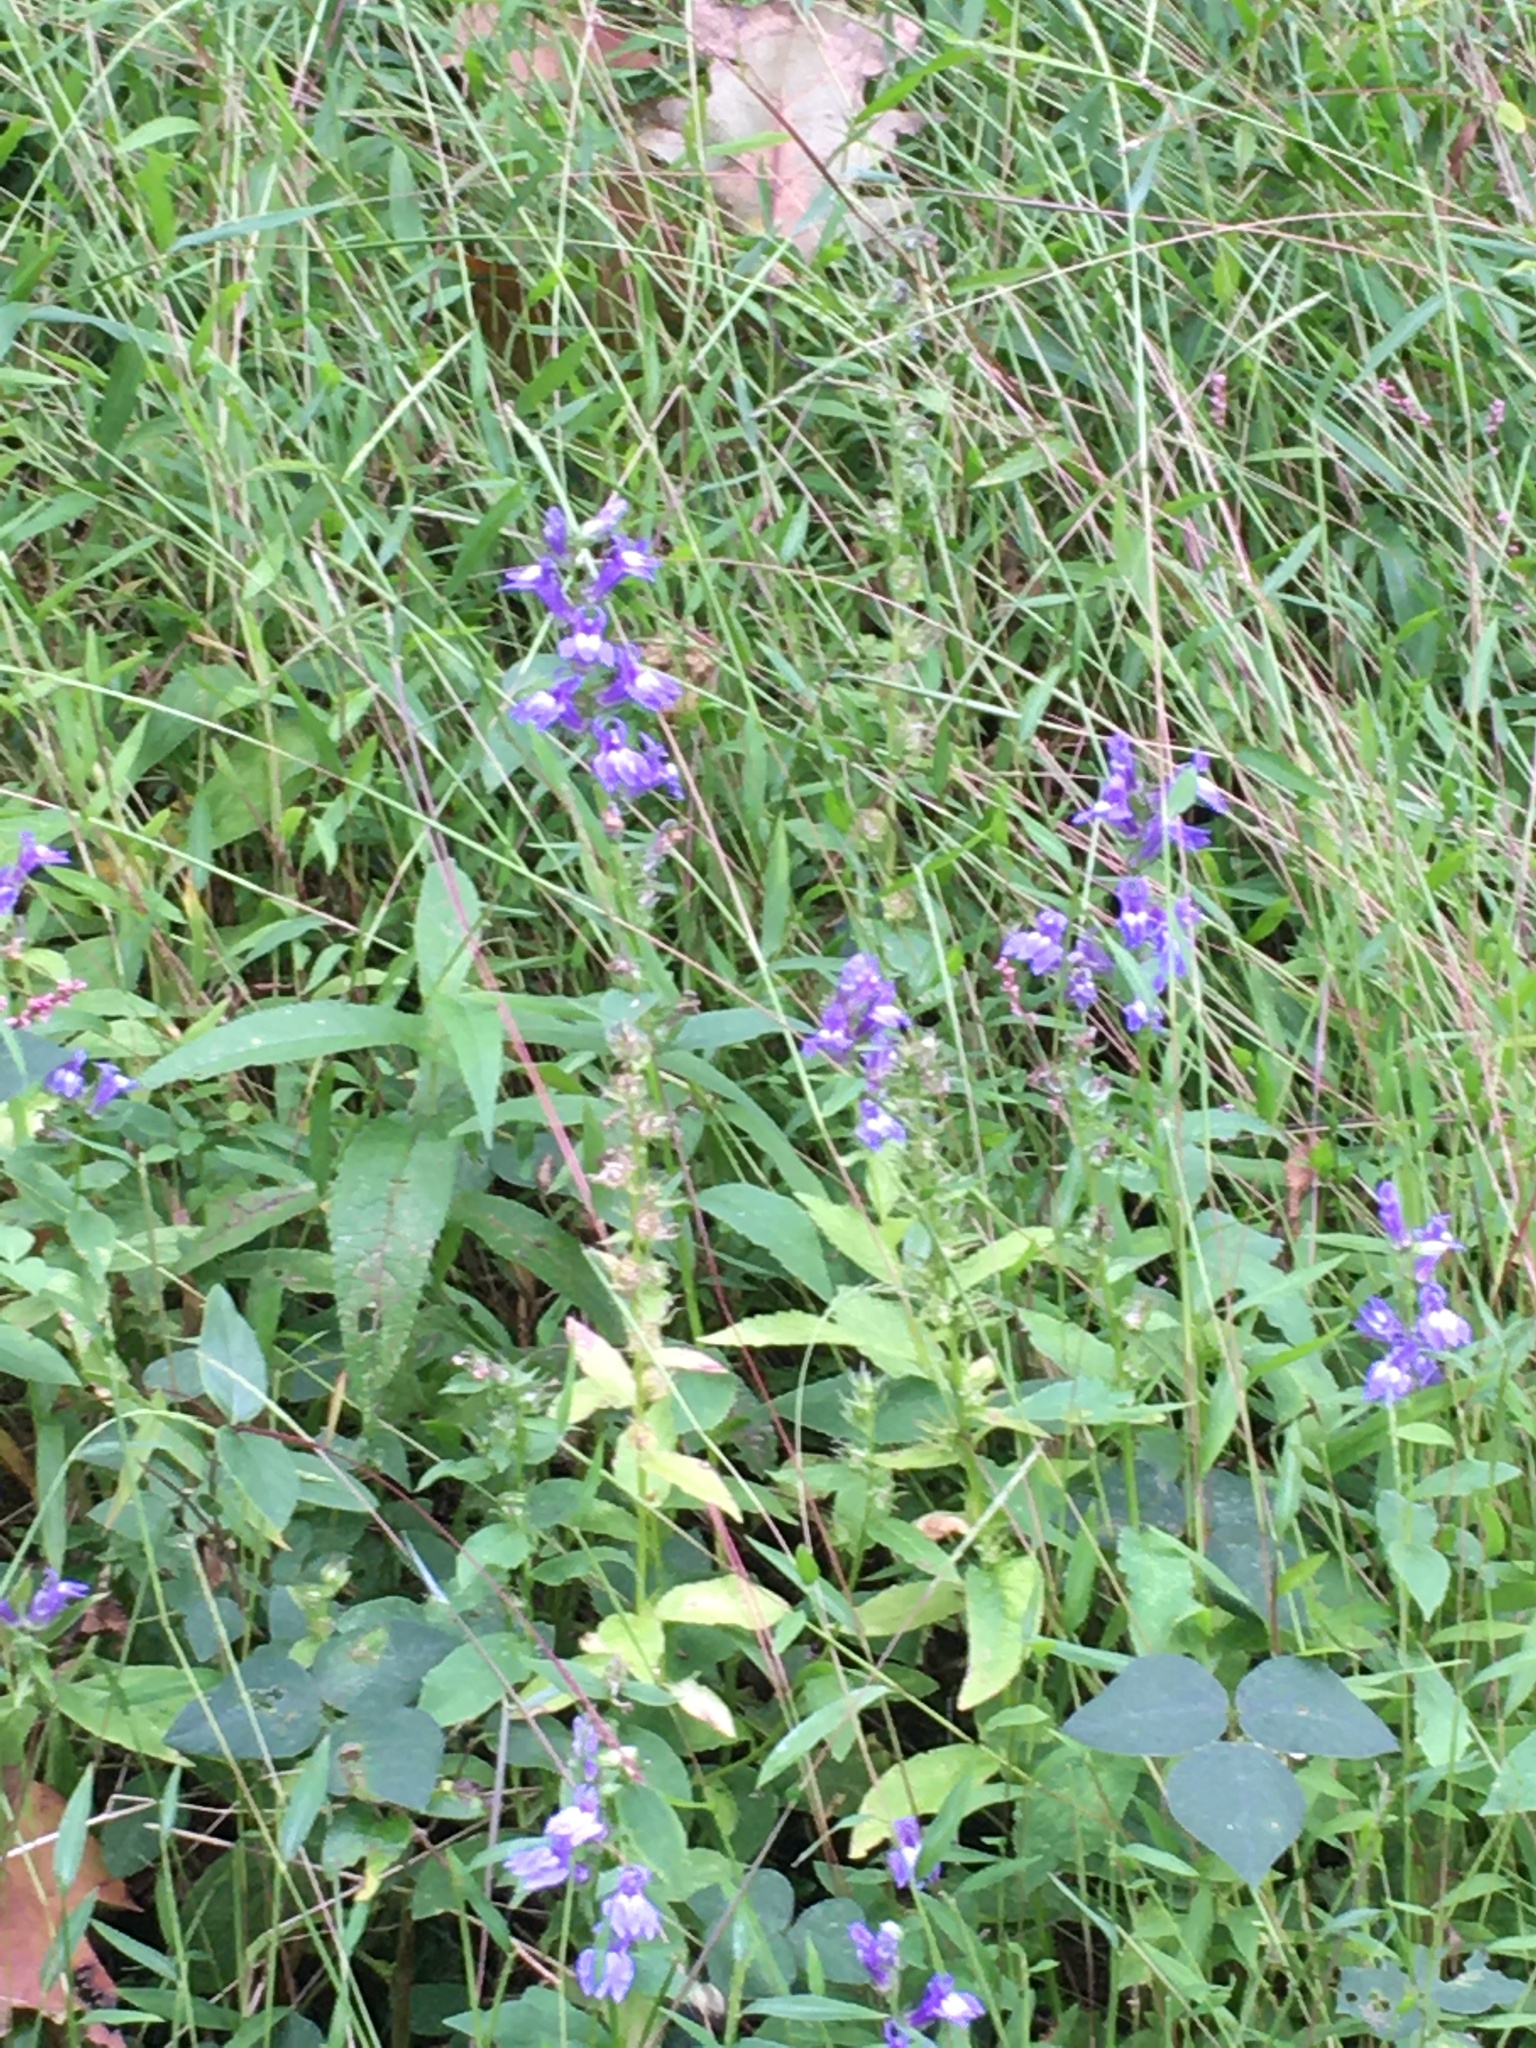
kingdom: Plantae
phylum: Tracheophyta
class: Magnoliopsida
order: Asterales
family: Campanulaceae
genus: Lobelia
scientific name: Lobelia siphilitica
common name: Great lobelia
